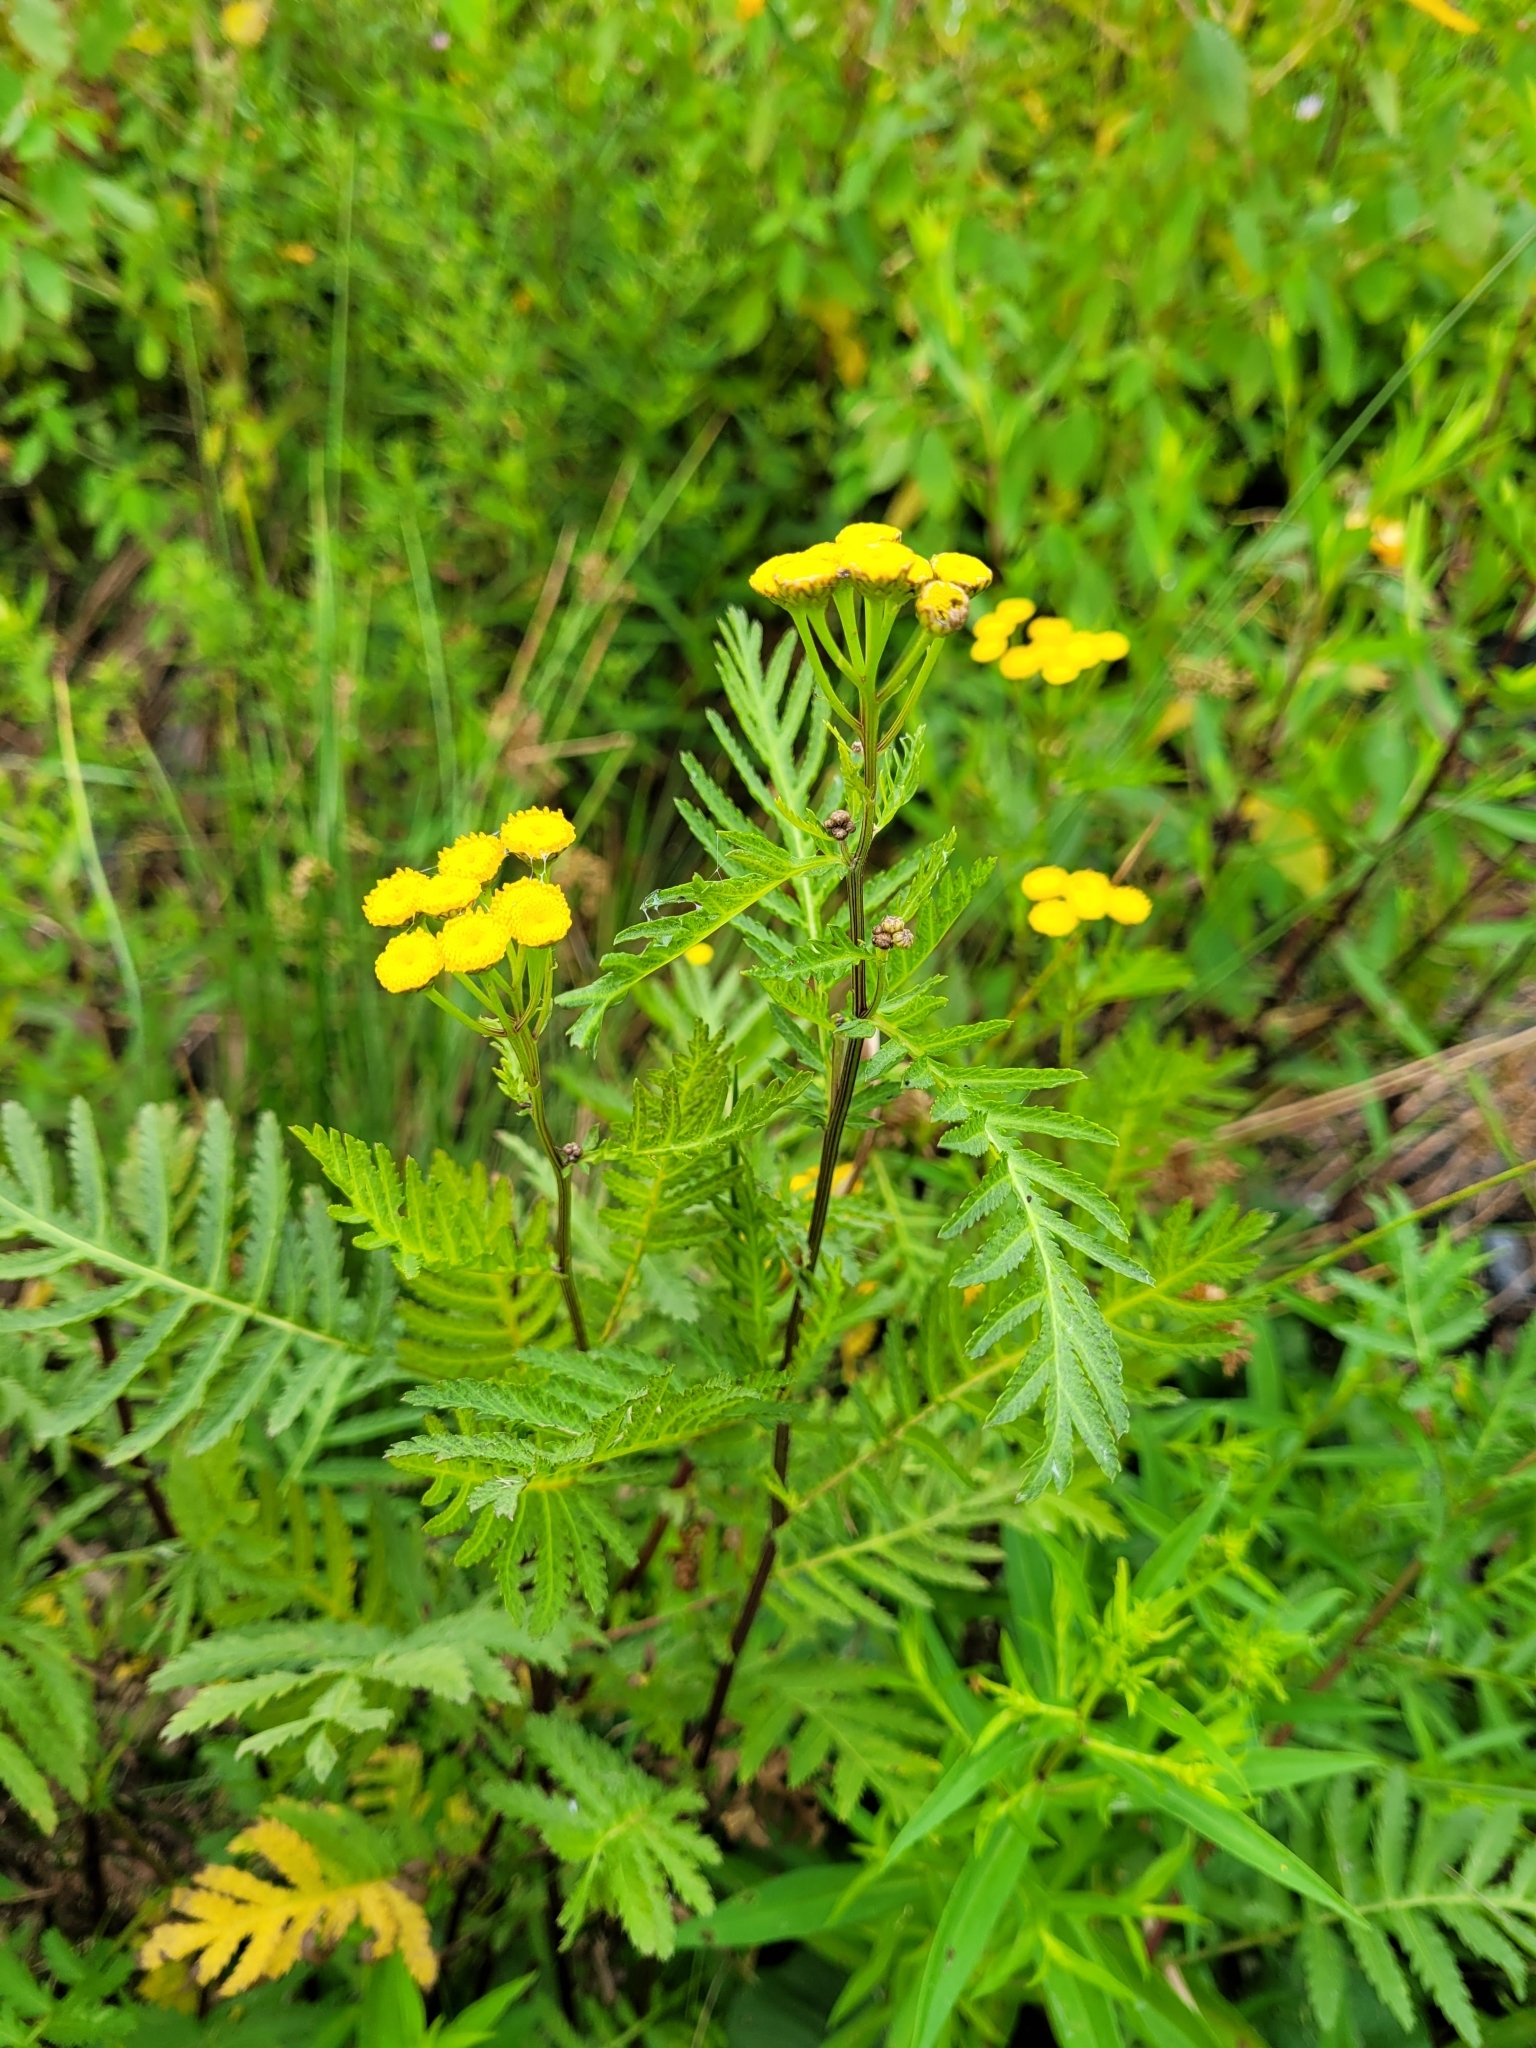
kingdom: Plantae
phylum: Tracheophyta
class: Magnoliopsida
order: Asterales
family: Asteraceae
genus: Tanacetum
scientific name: Tanacetum vulgare
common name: Common tansy
